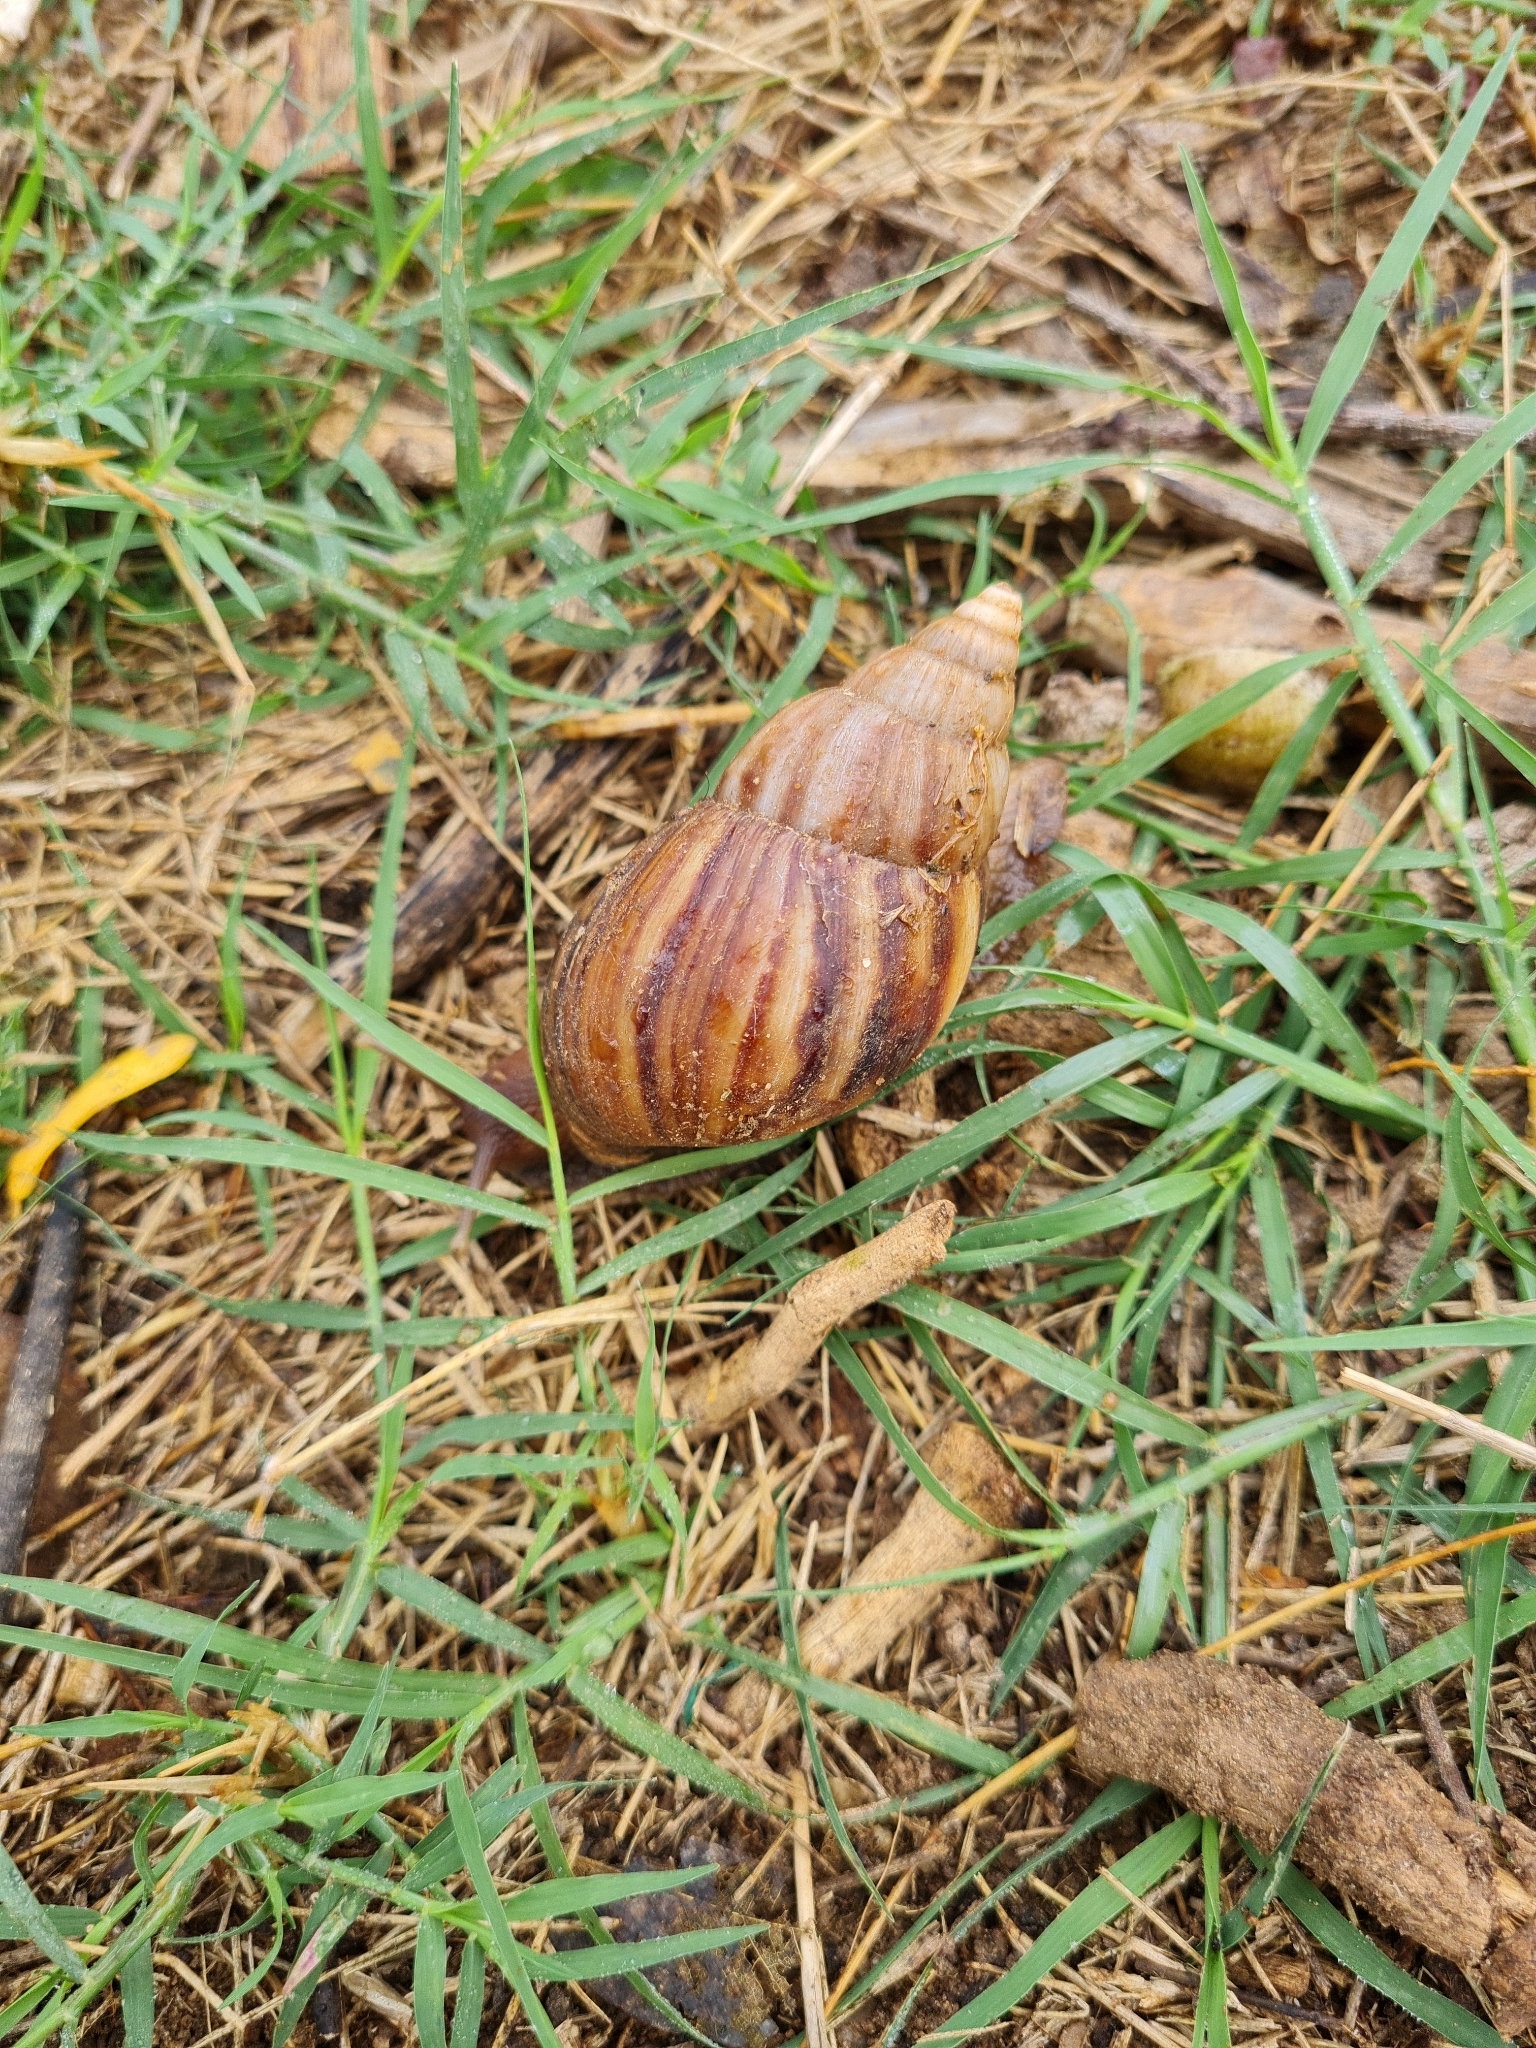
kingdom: Animalia
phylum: Mollusca
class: Gastropoda
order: Stylommatophora
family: Achatinidae
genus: Lissachatina
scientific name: Lissachatina fulica
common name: Giant african snail
